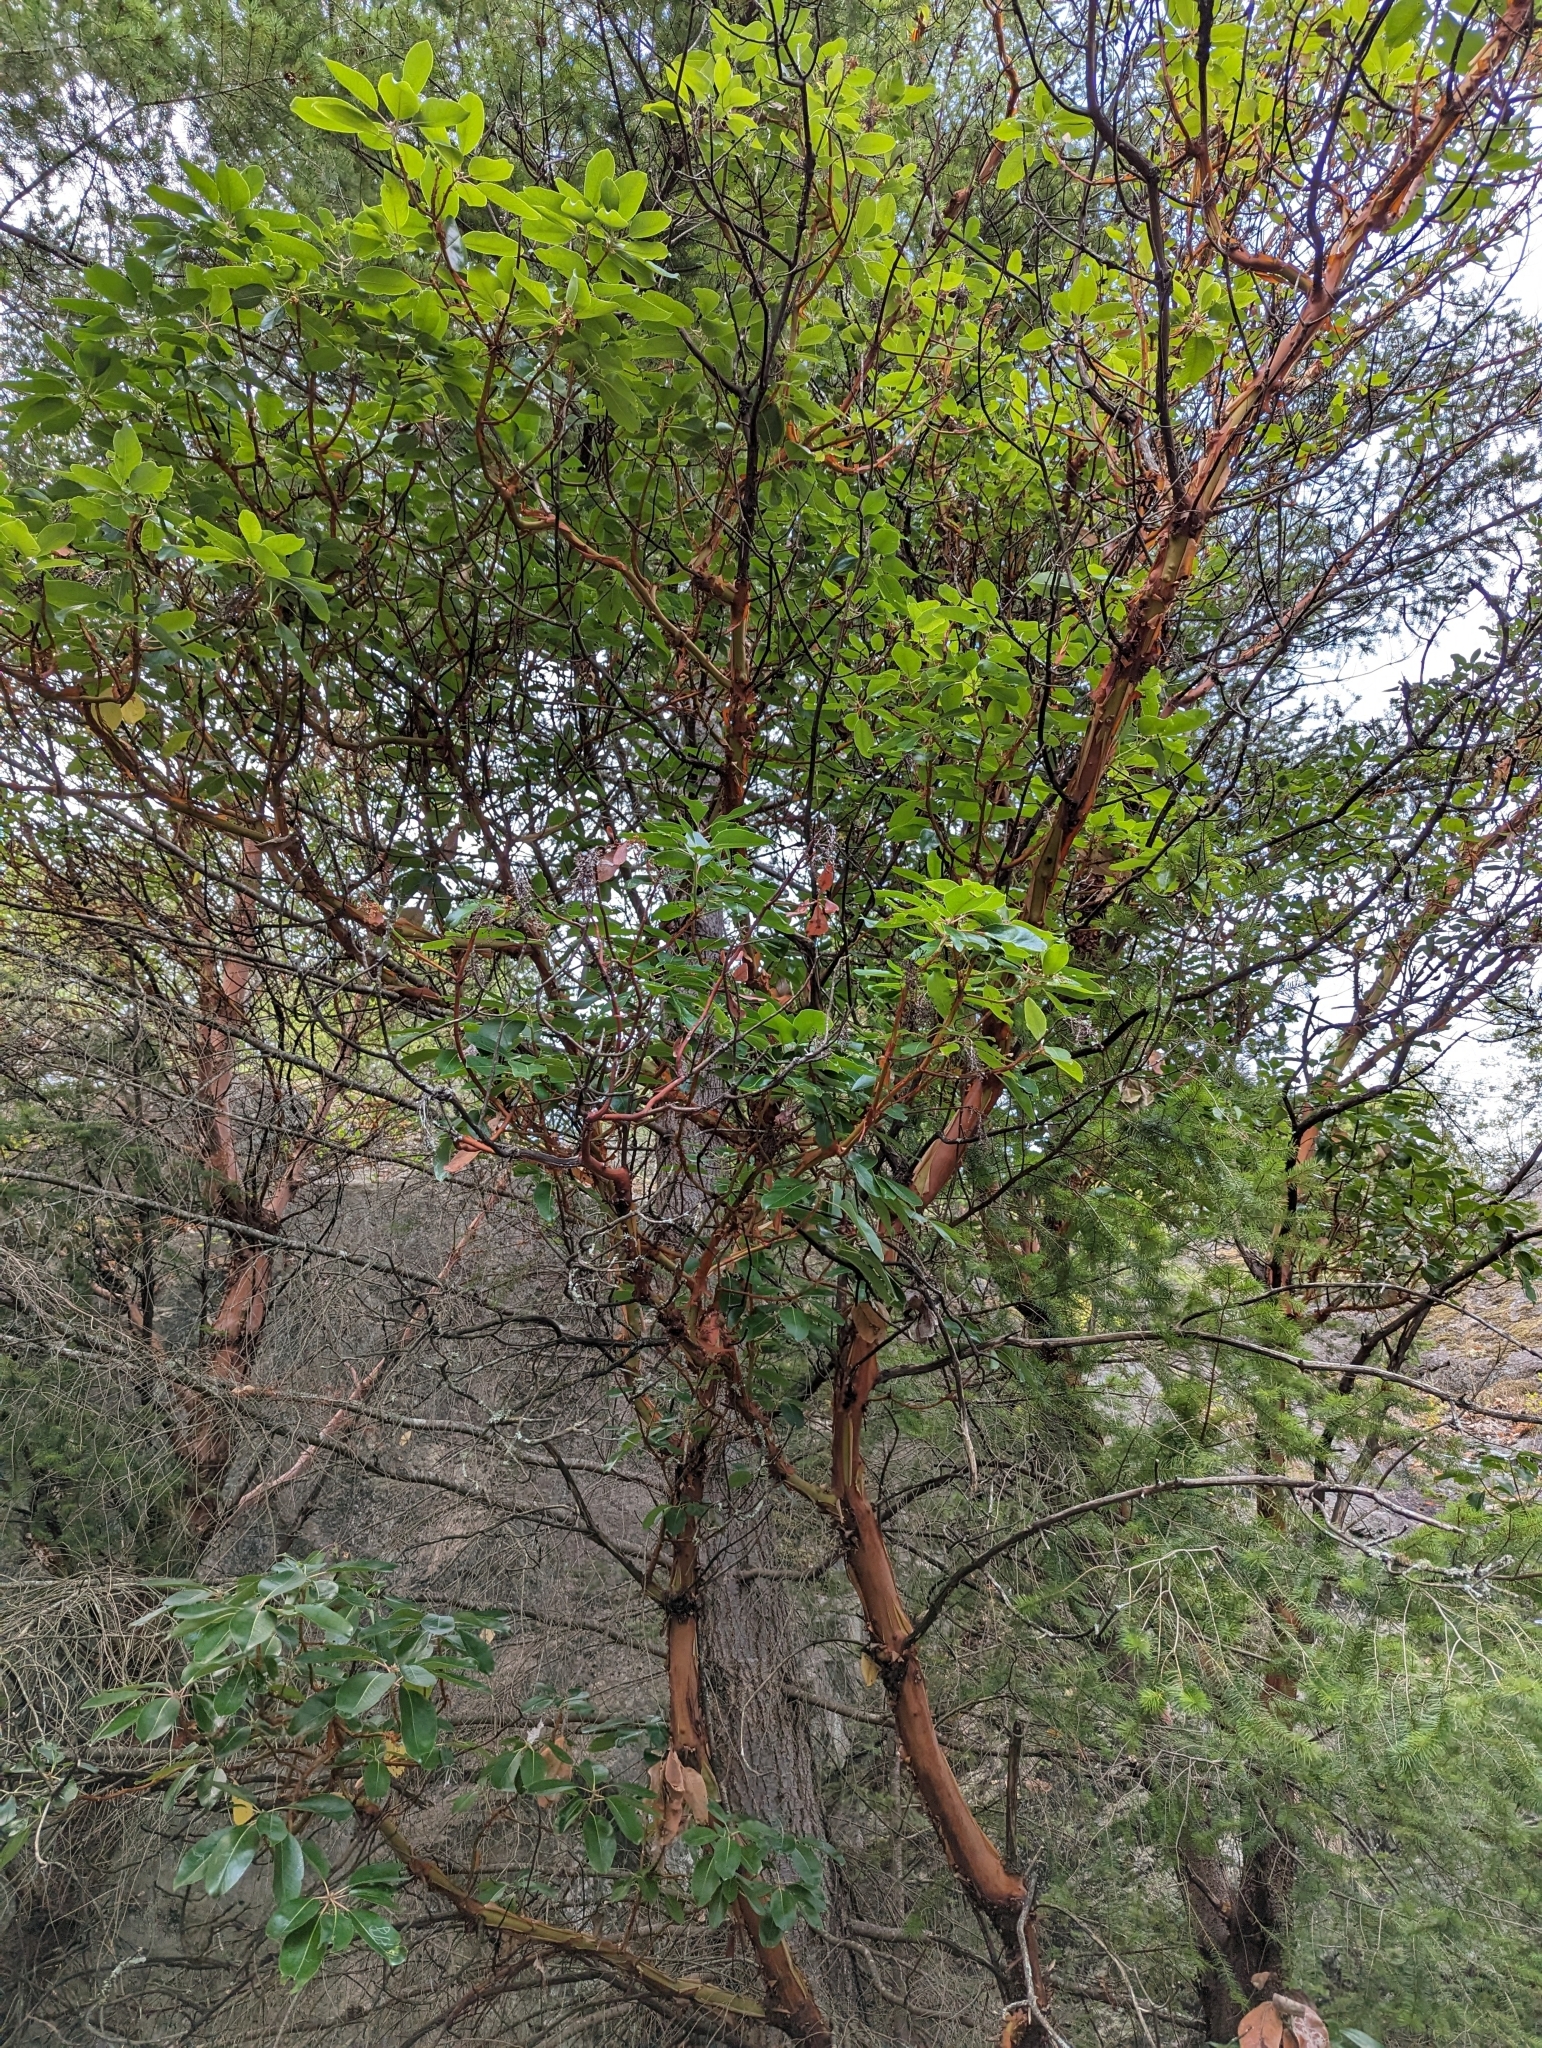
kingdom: Plantae
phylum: Tracheophyta
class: Magnoliopsida
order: Ericales
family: Ericaceae
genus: Arbutus
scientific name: Arbutus menziesii
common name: Pacific madrone
